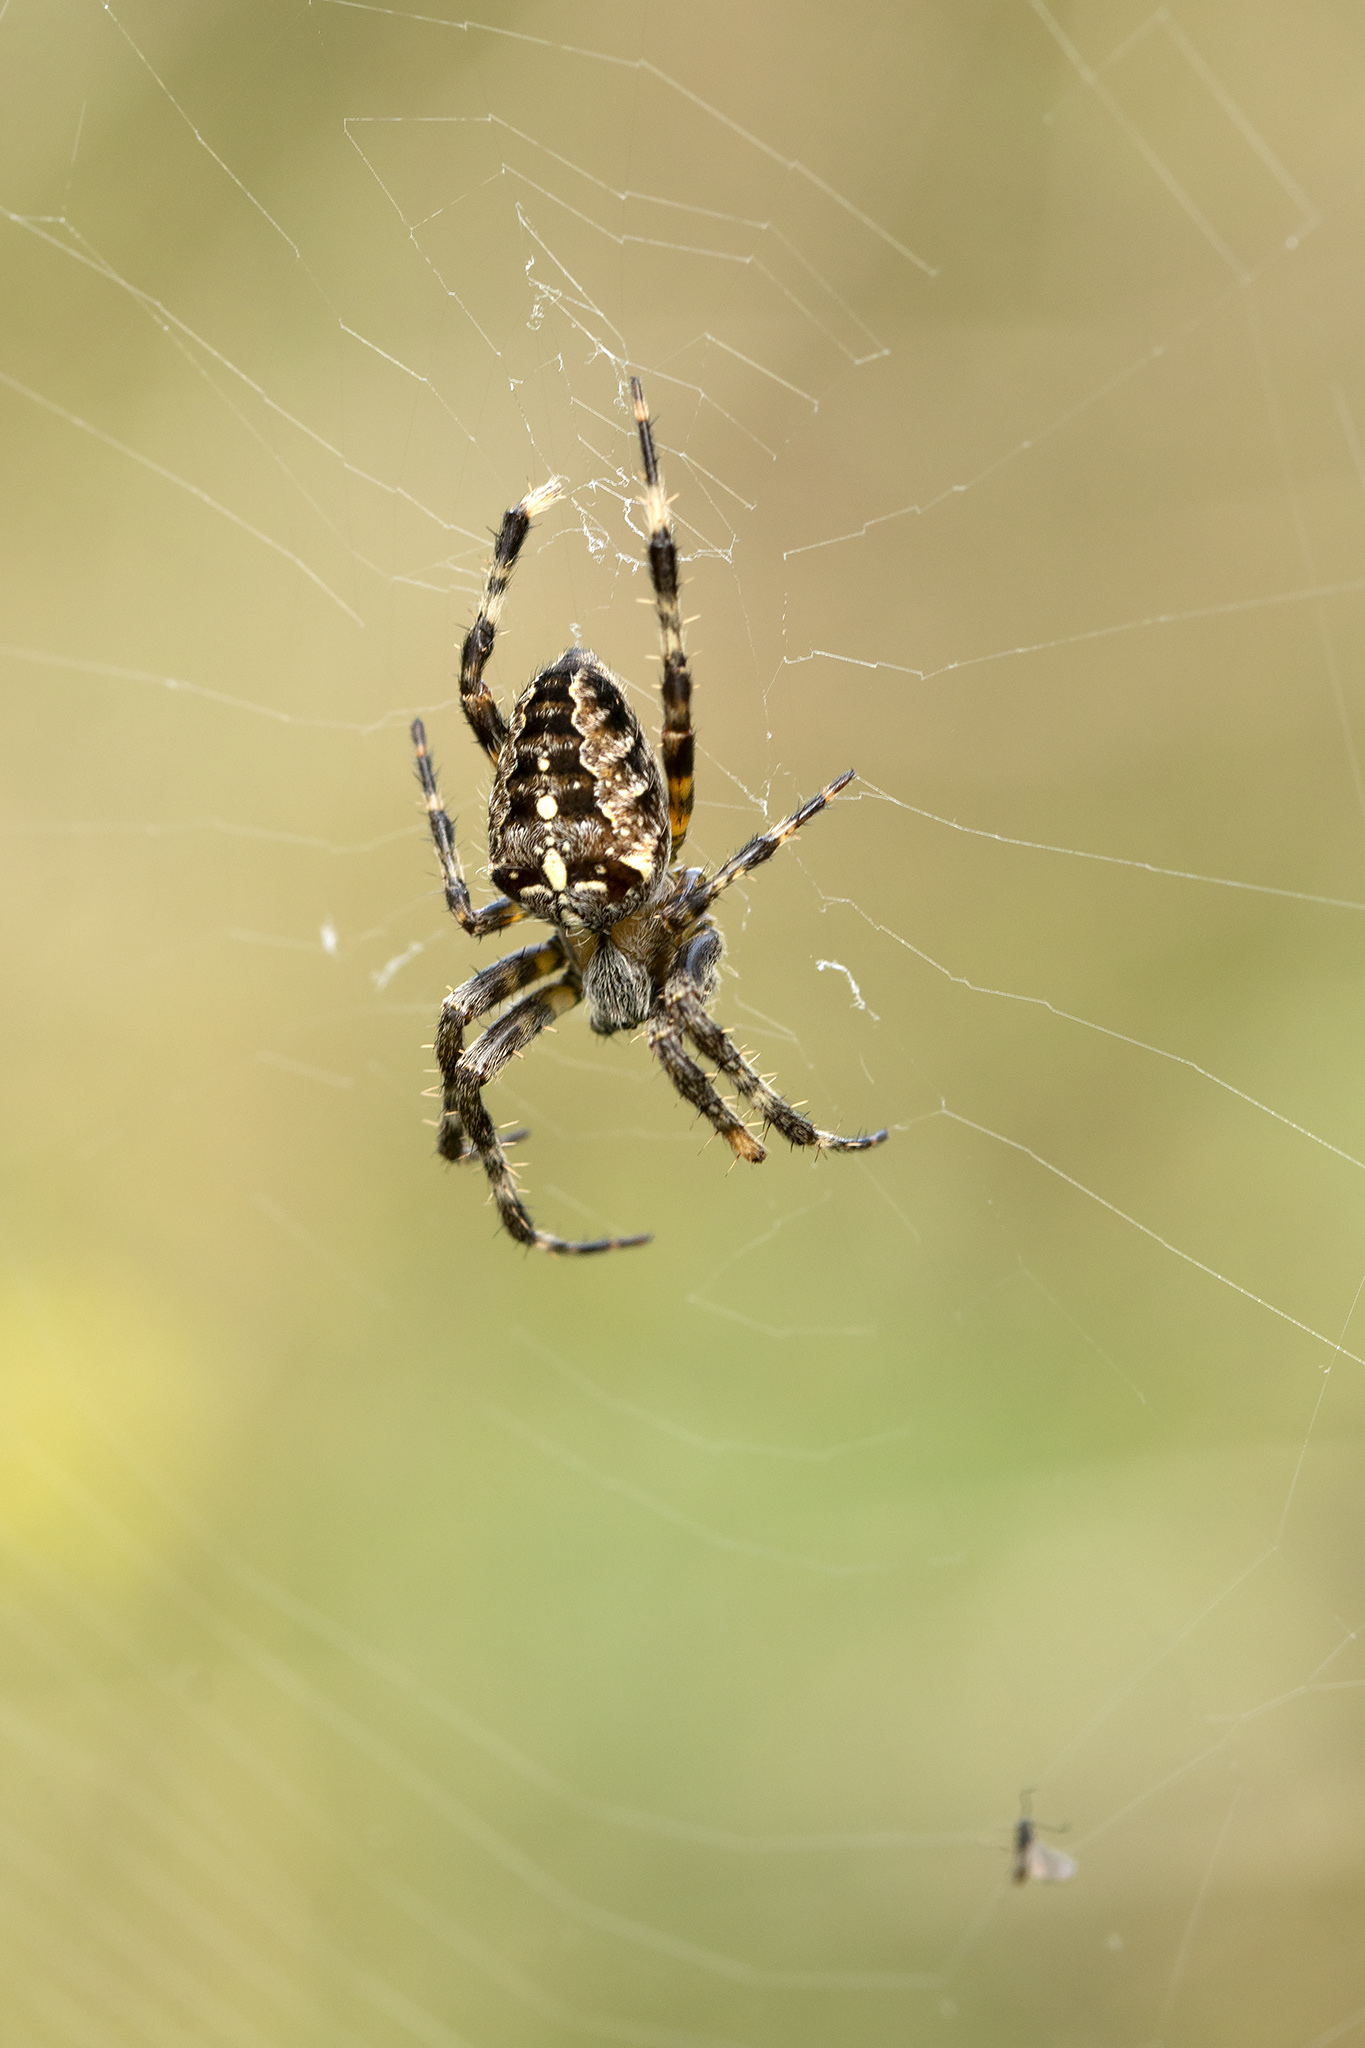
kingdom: Animalia
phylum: Arthropoda
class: Arachnida
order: Araneae
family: Araneidae
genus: Araneus
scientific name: Araneus diadematus
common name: Cross orbweaver
